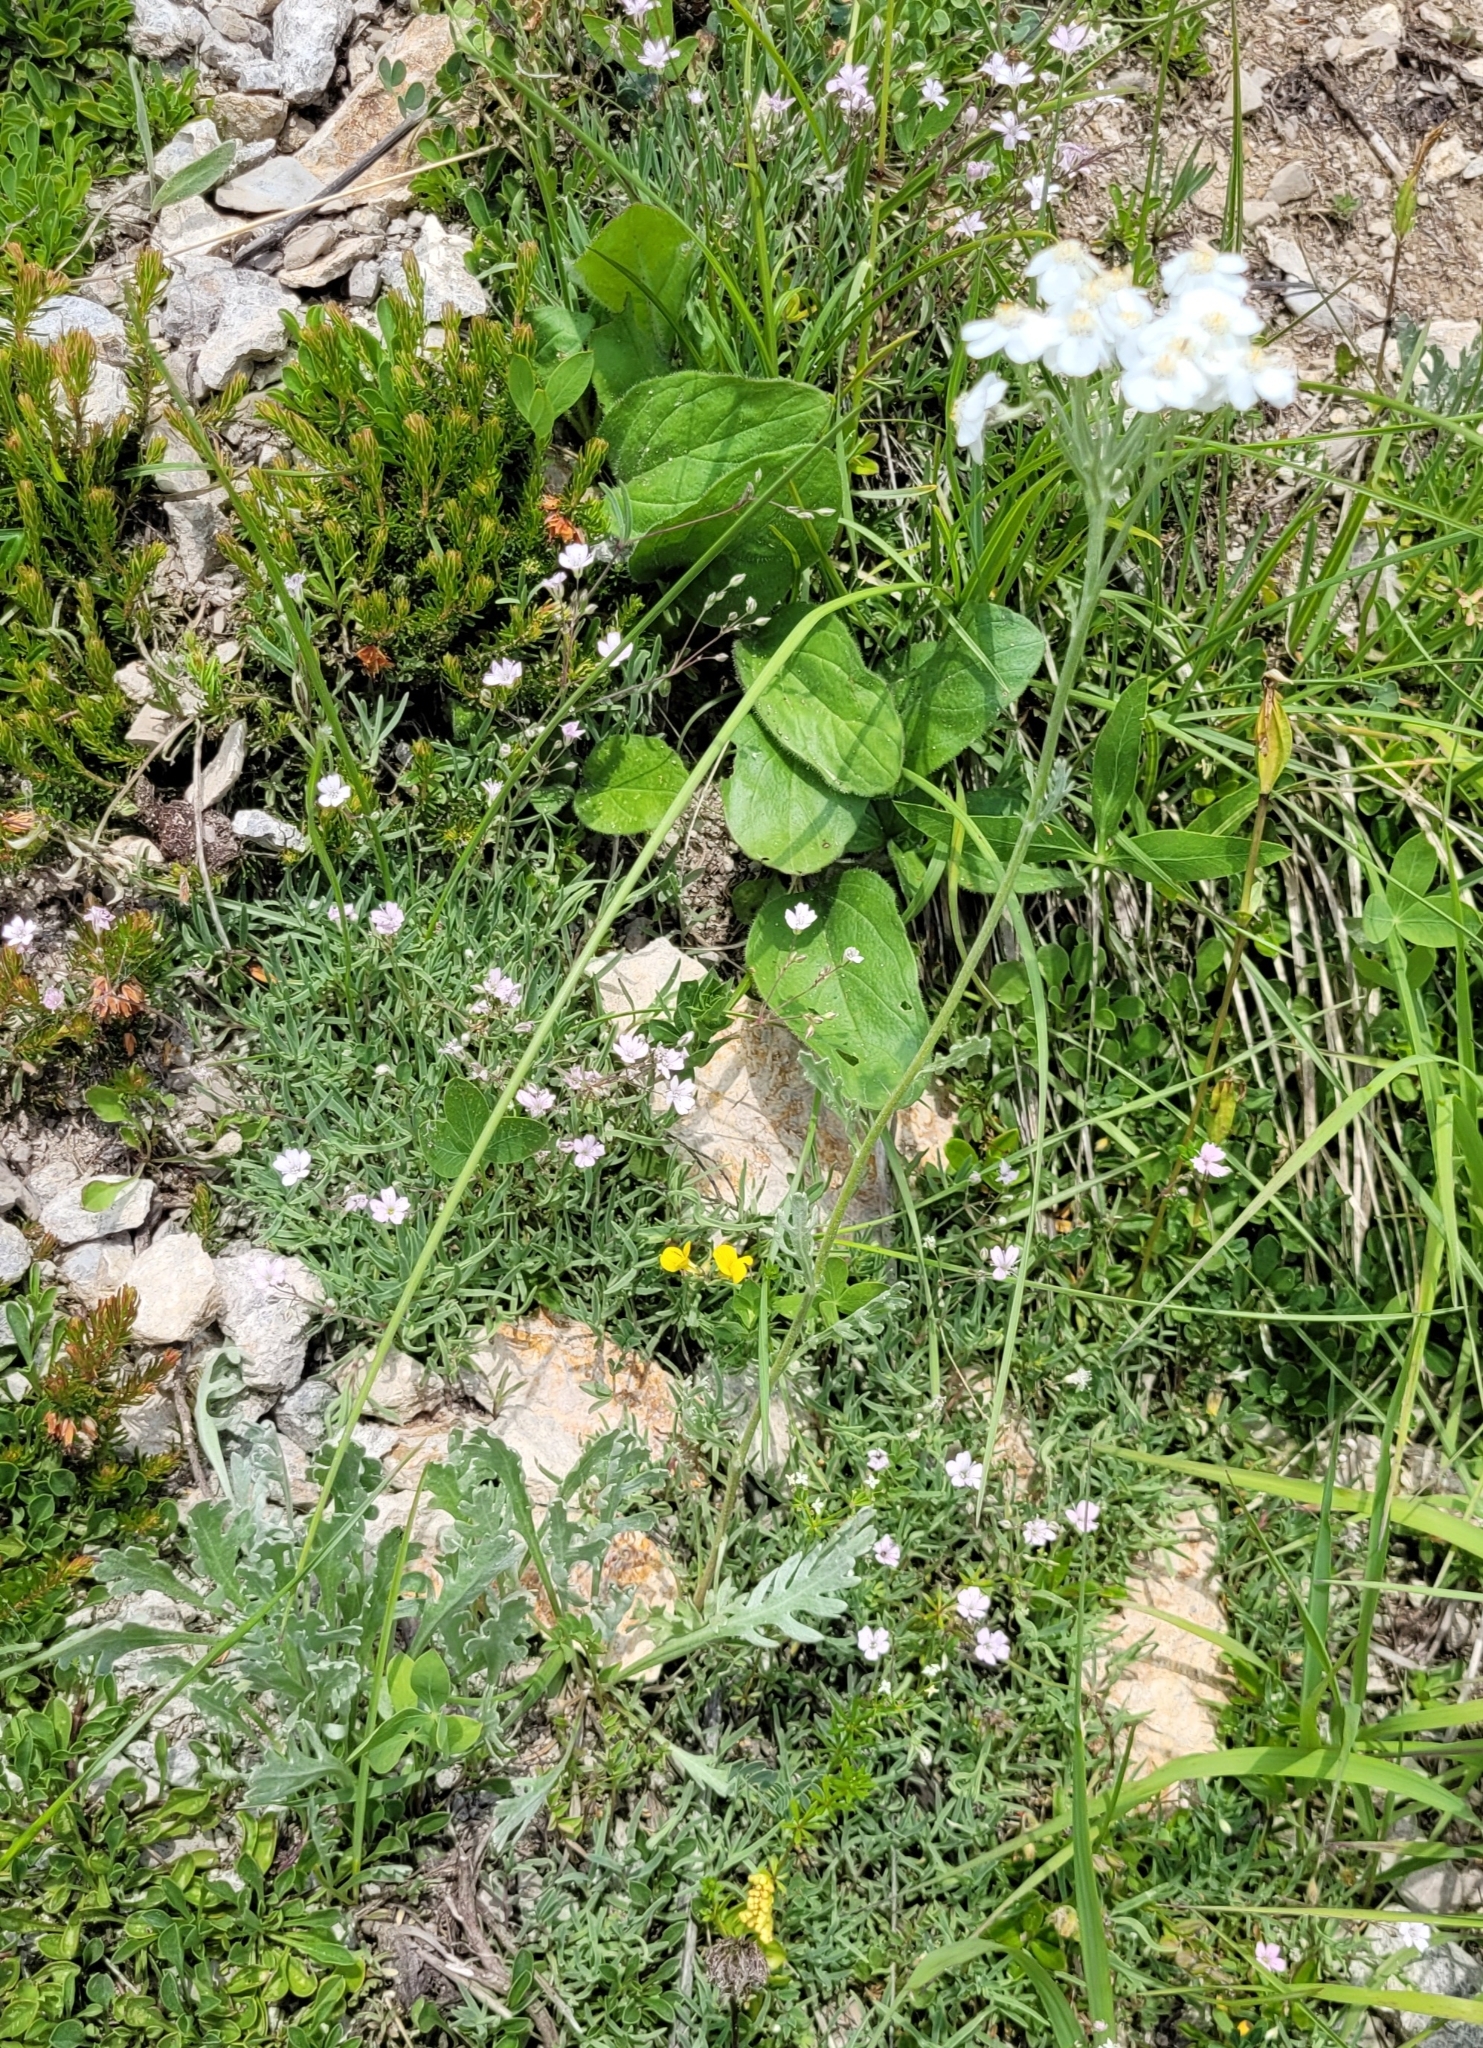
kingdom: Plantae
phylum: Tracheophyta
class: Magnoliopsida
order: Asterales
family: Asteraceae
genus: Achillea
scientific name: Achillea clavennae
